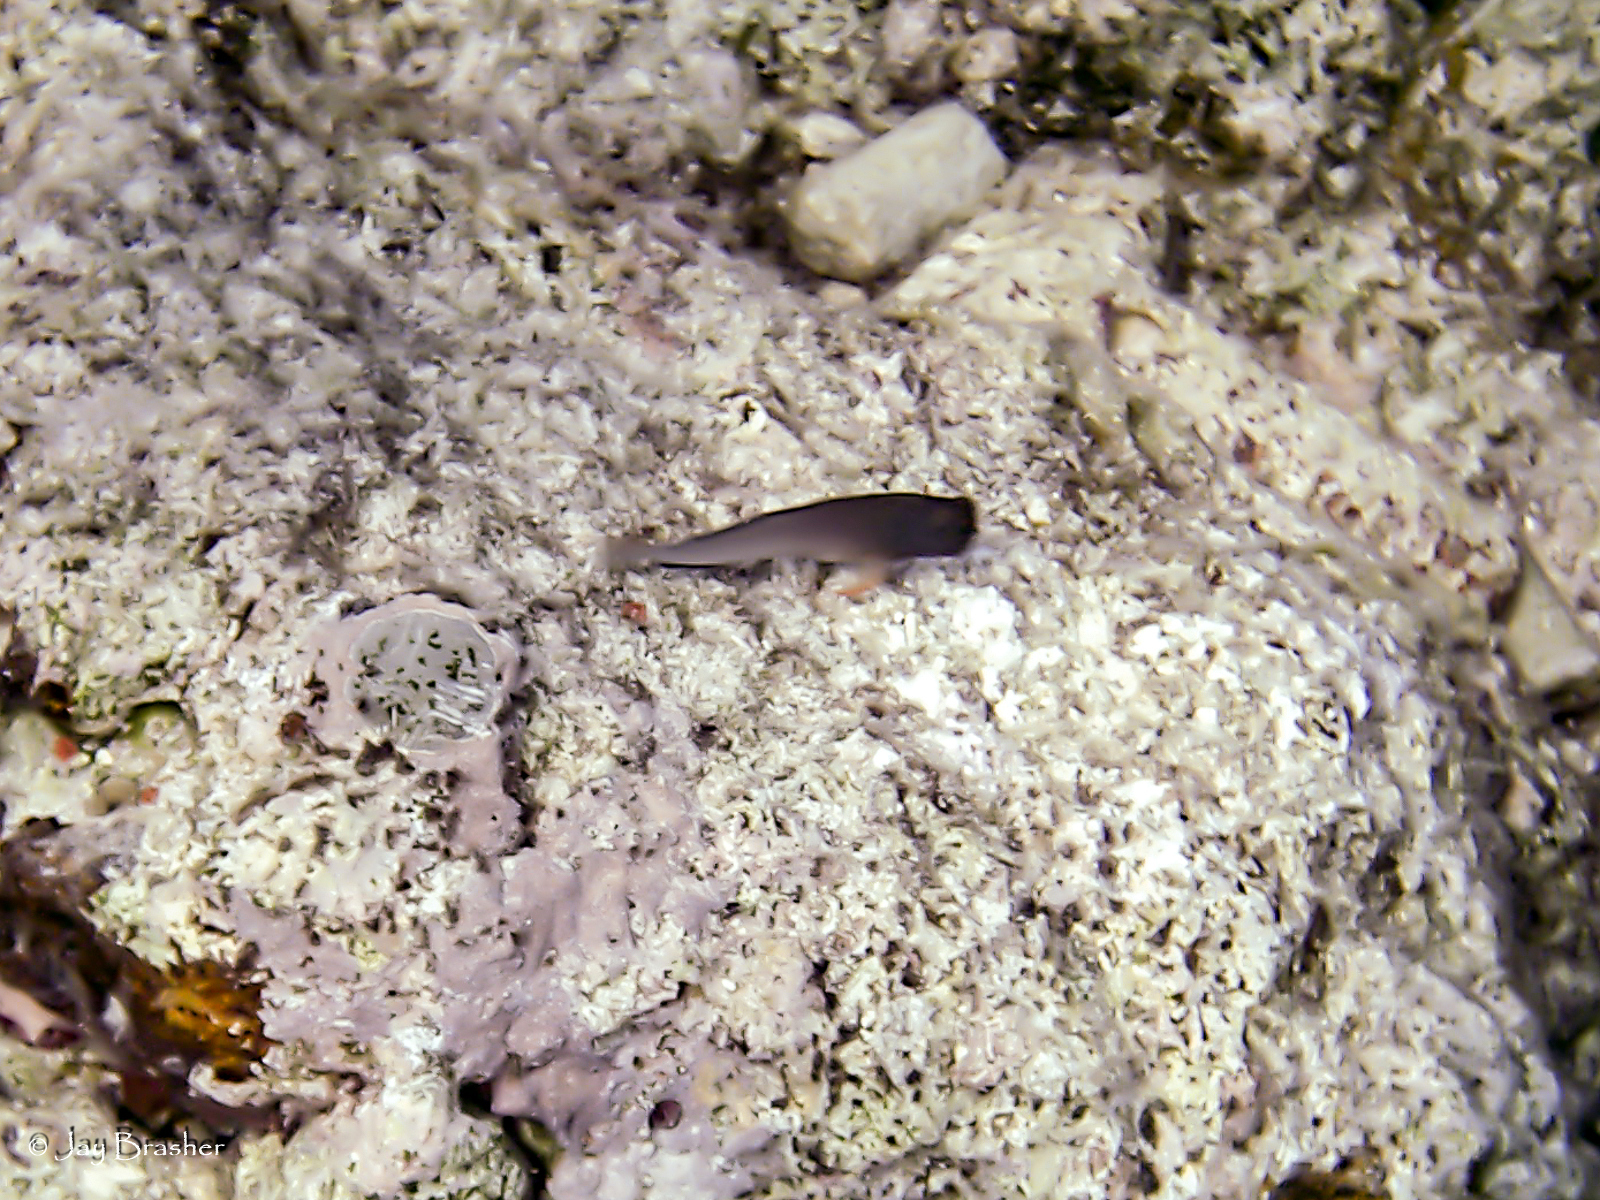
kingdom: Animalia
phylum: Chordata
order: Perciformes
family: Blenniidae
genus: Ophioblennius
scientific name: Ophioblennius macclurei
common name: Redlip blenny
